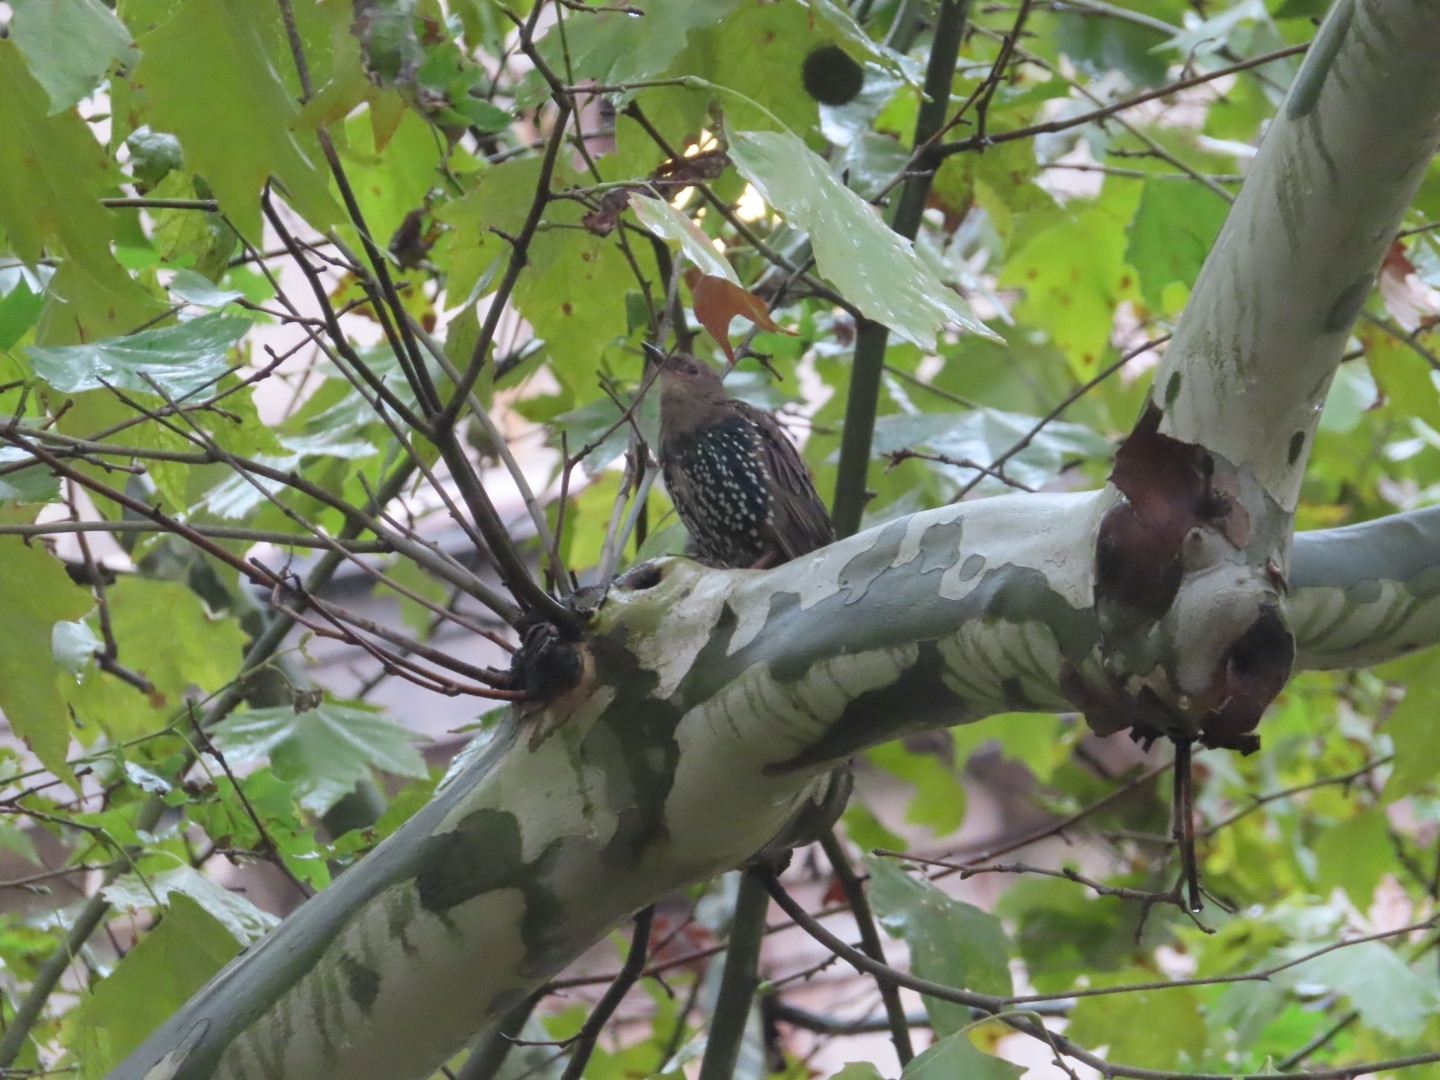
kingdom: Animalia
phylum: Chordata
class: Aves
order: Passeriformes
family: Sturnidae
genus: Sturnus
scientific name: Sturnus vulgaris
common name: Common starling
